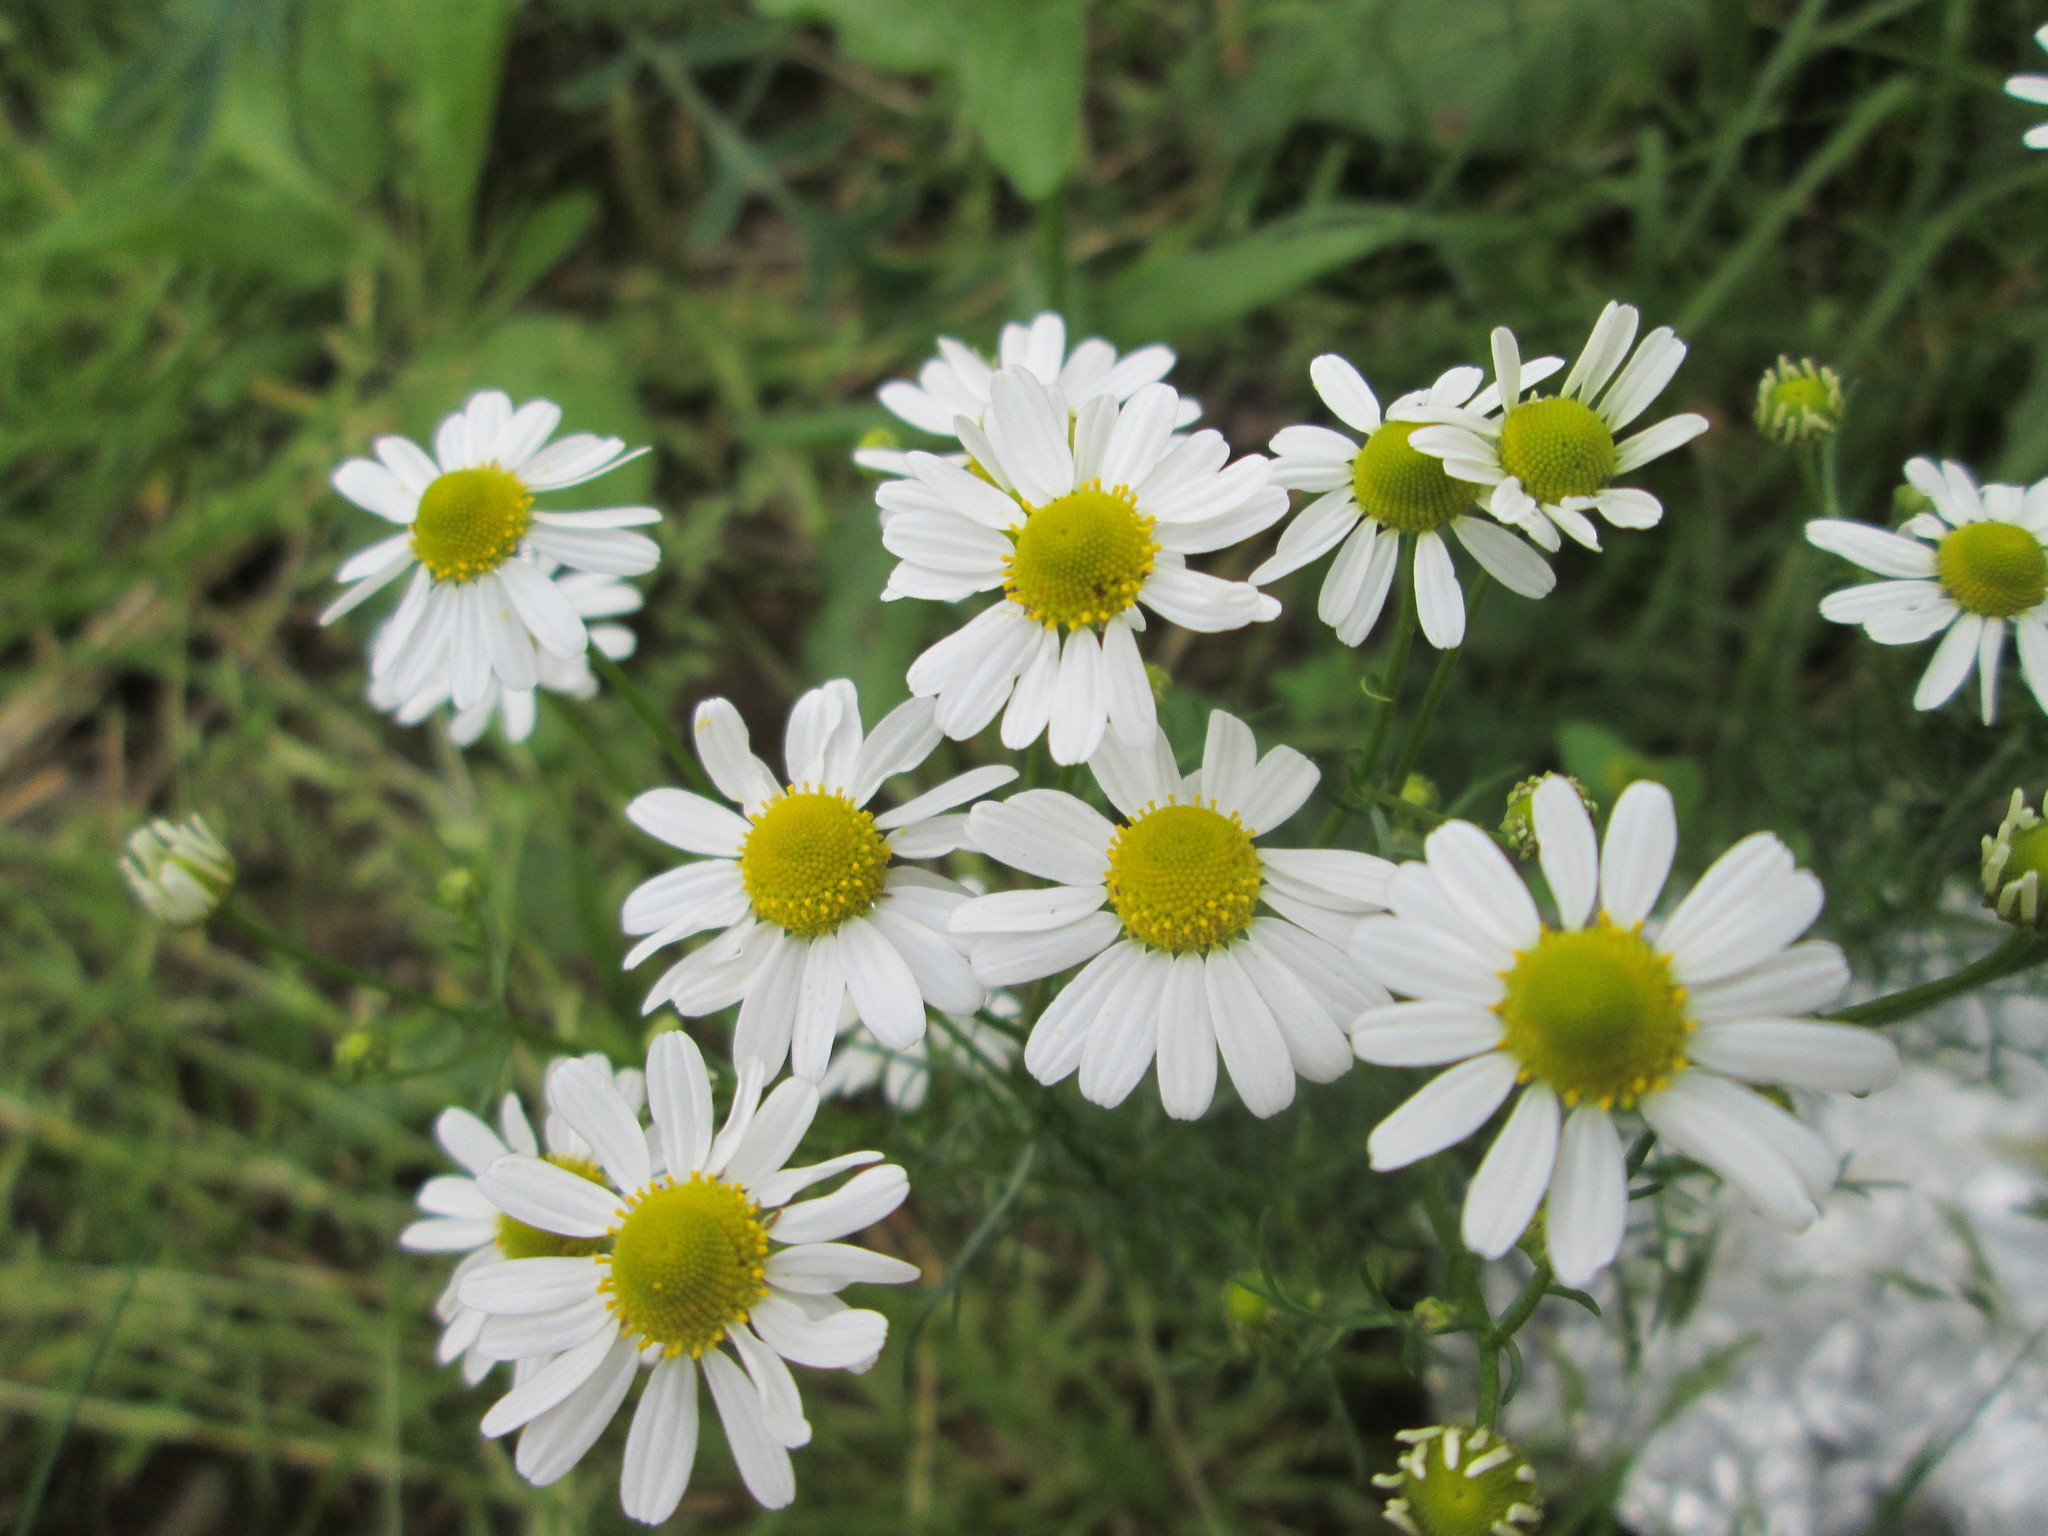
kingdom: Plantae
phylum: Tracheophyta
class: Magnoliopsida
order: Asterales
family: Asteraceae
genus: Tripleurospermum
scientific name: Tripleurospermum inodorum
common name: Scentless mayweed
